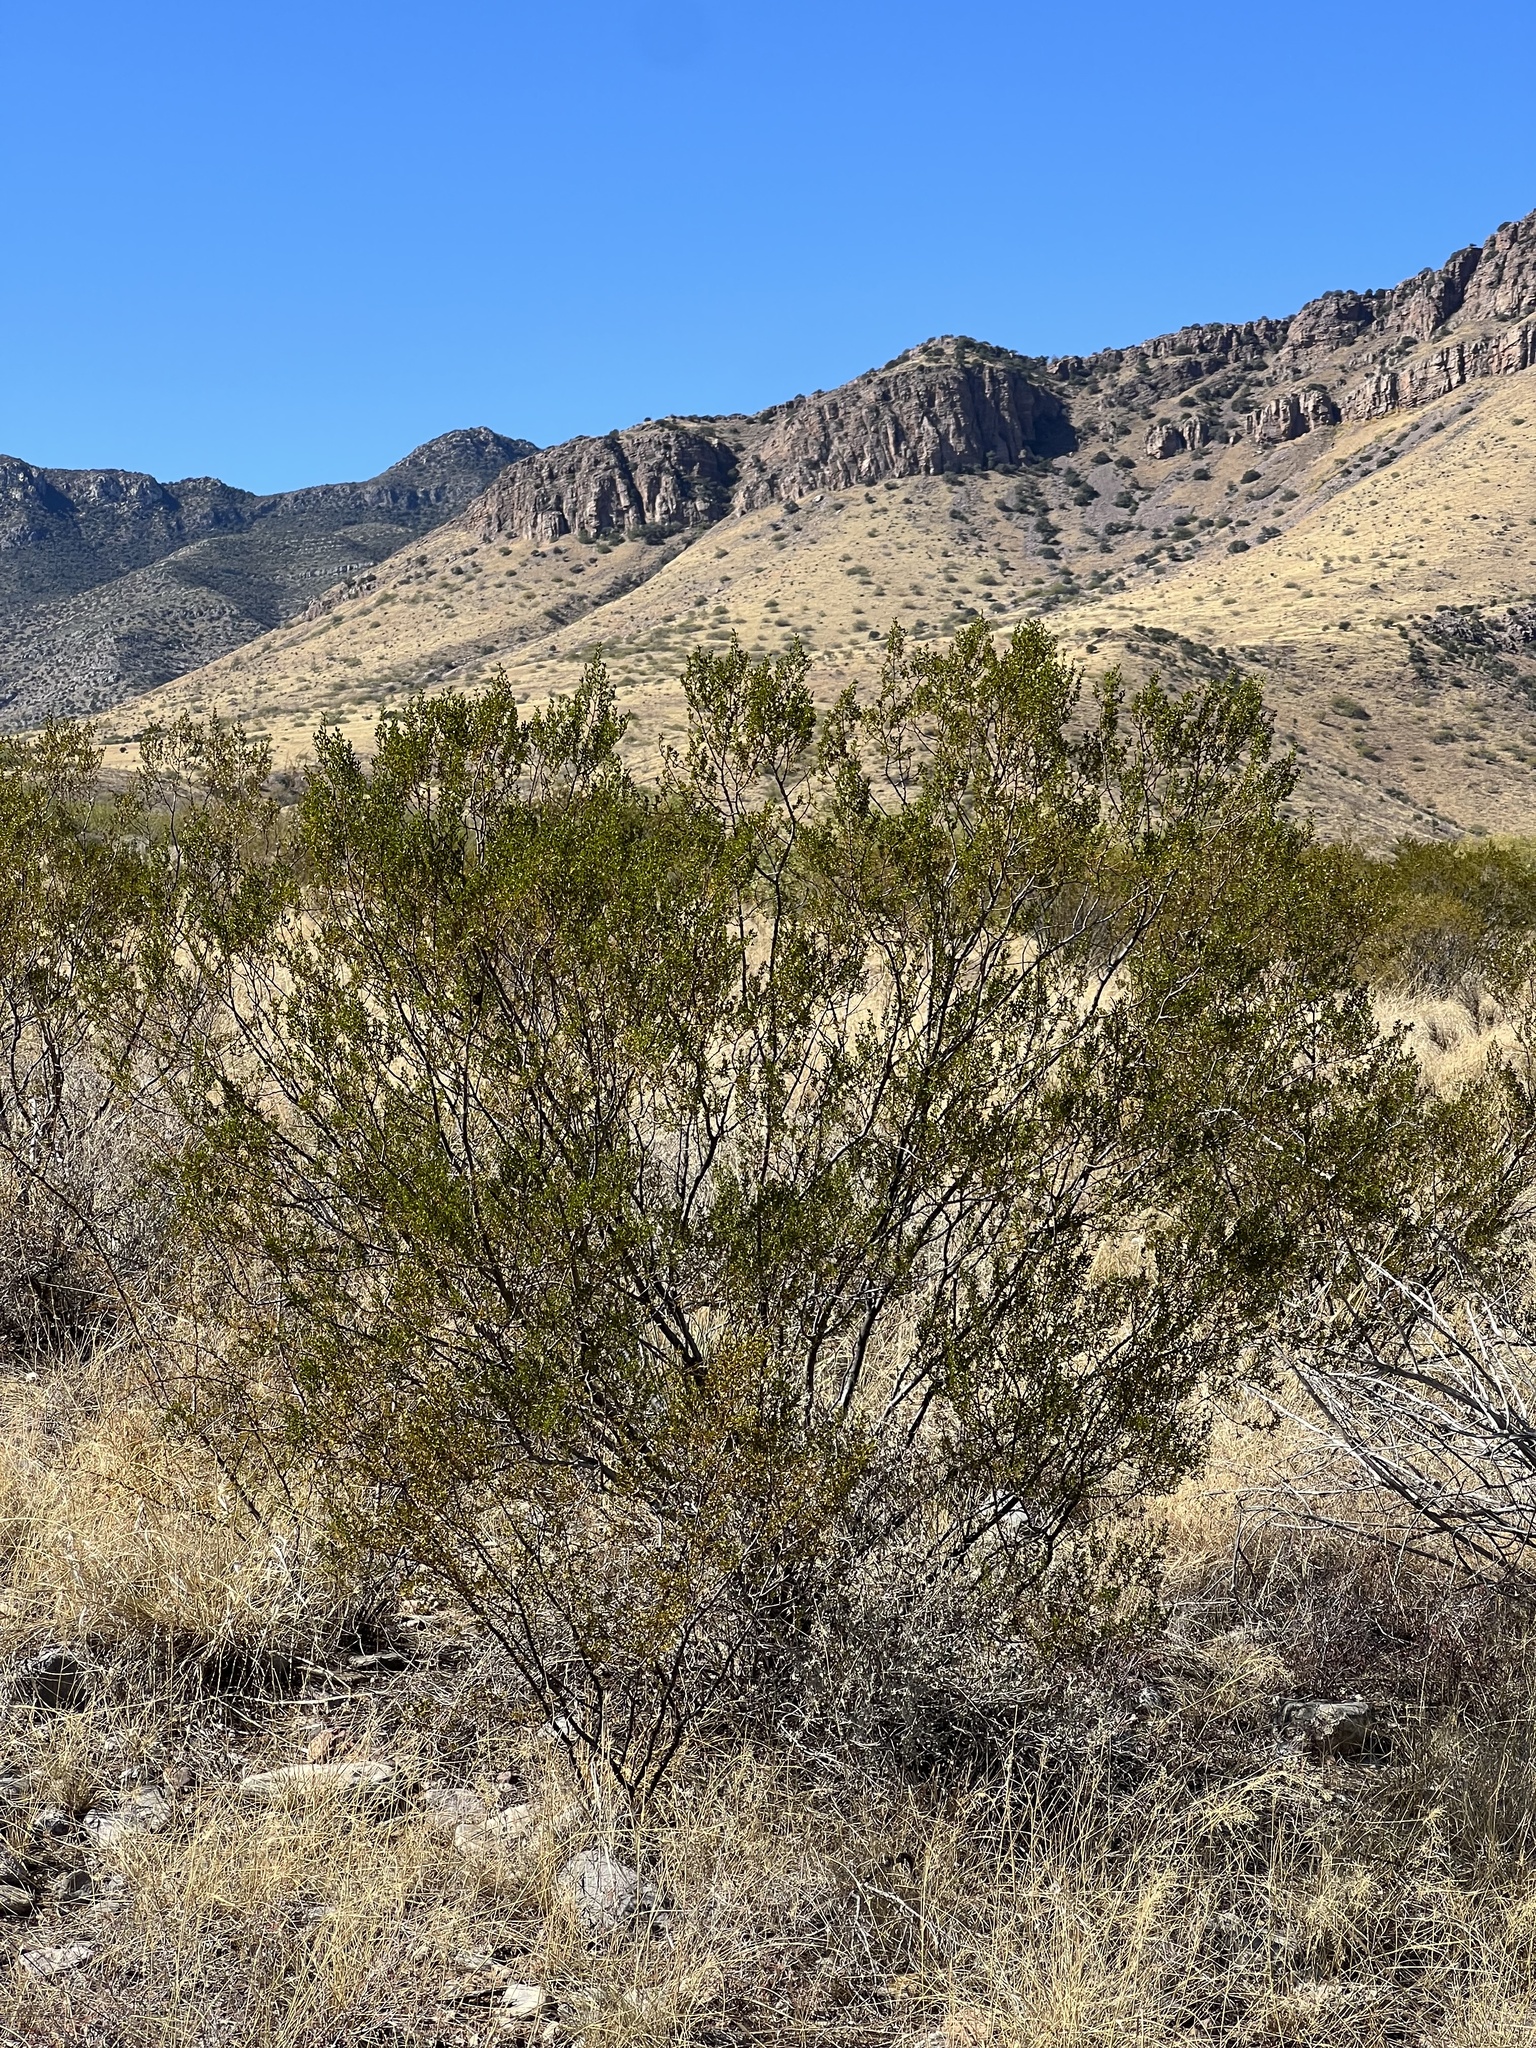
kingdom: Plantae
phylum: Tracheophyta
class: Magnoliopsida
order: Zygophyllales
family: Zygophyllaceae
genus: Larrea
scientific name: Larrea tridentata
